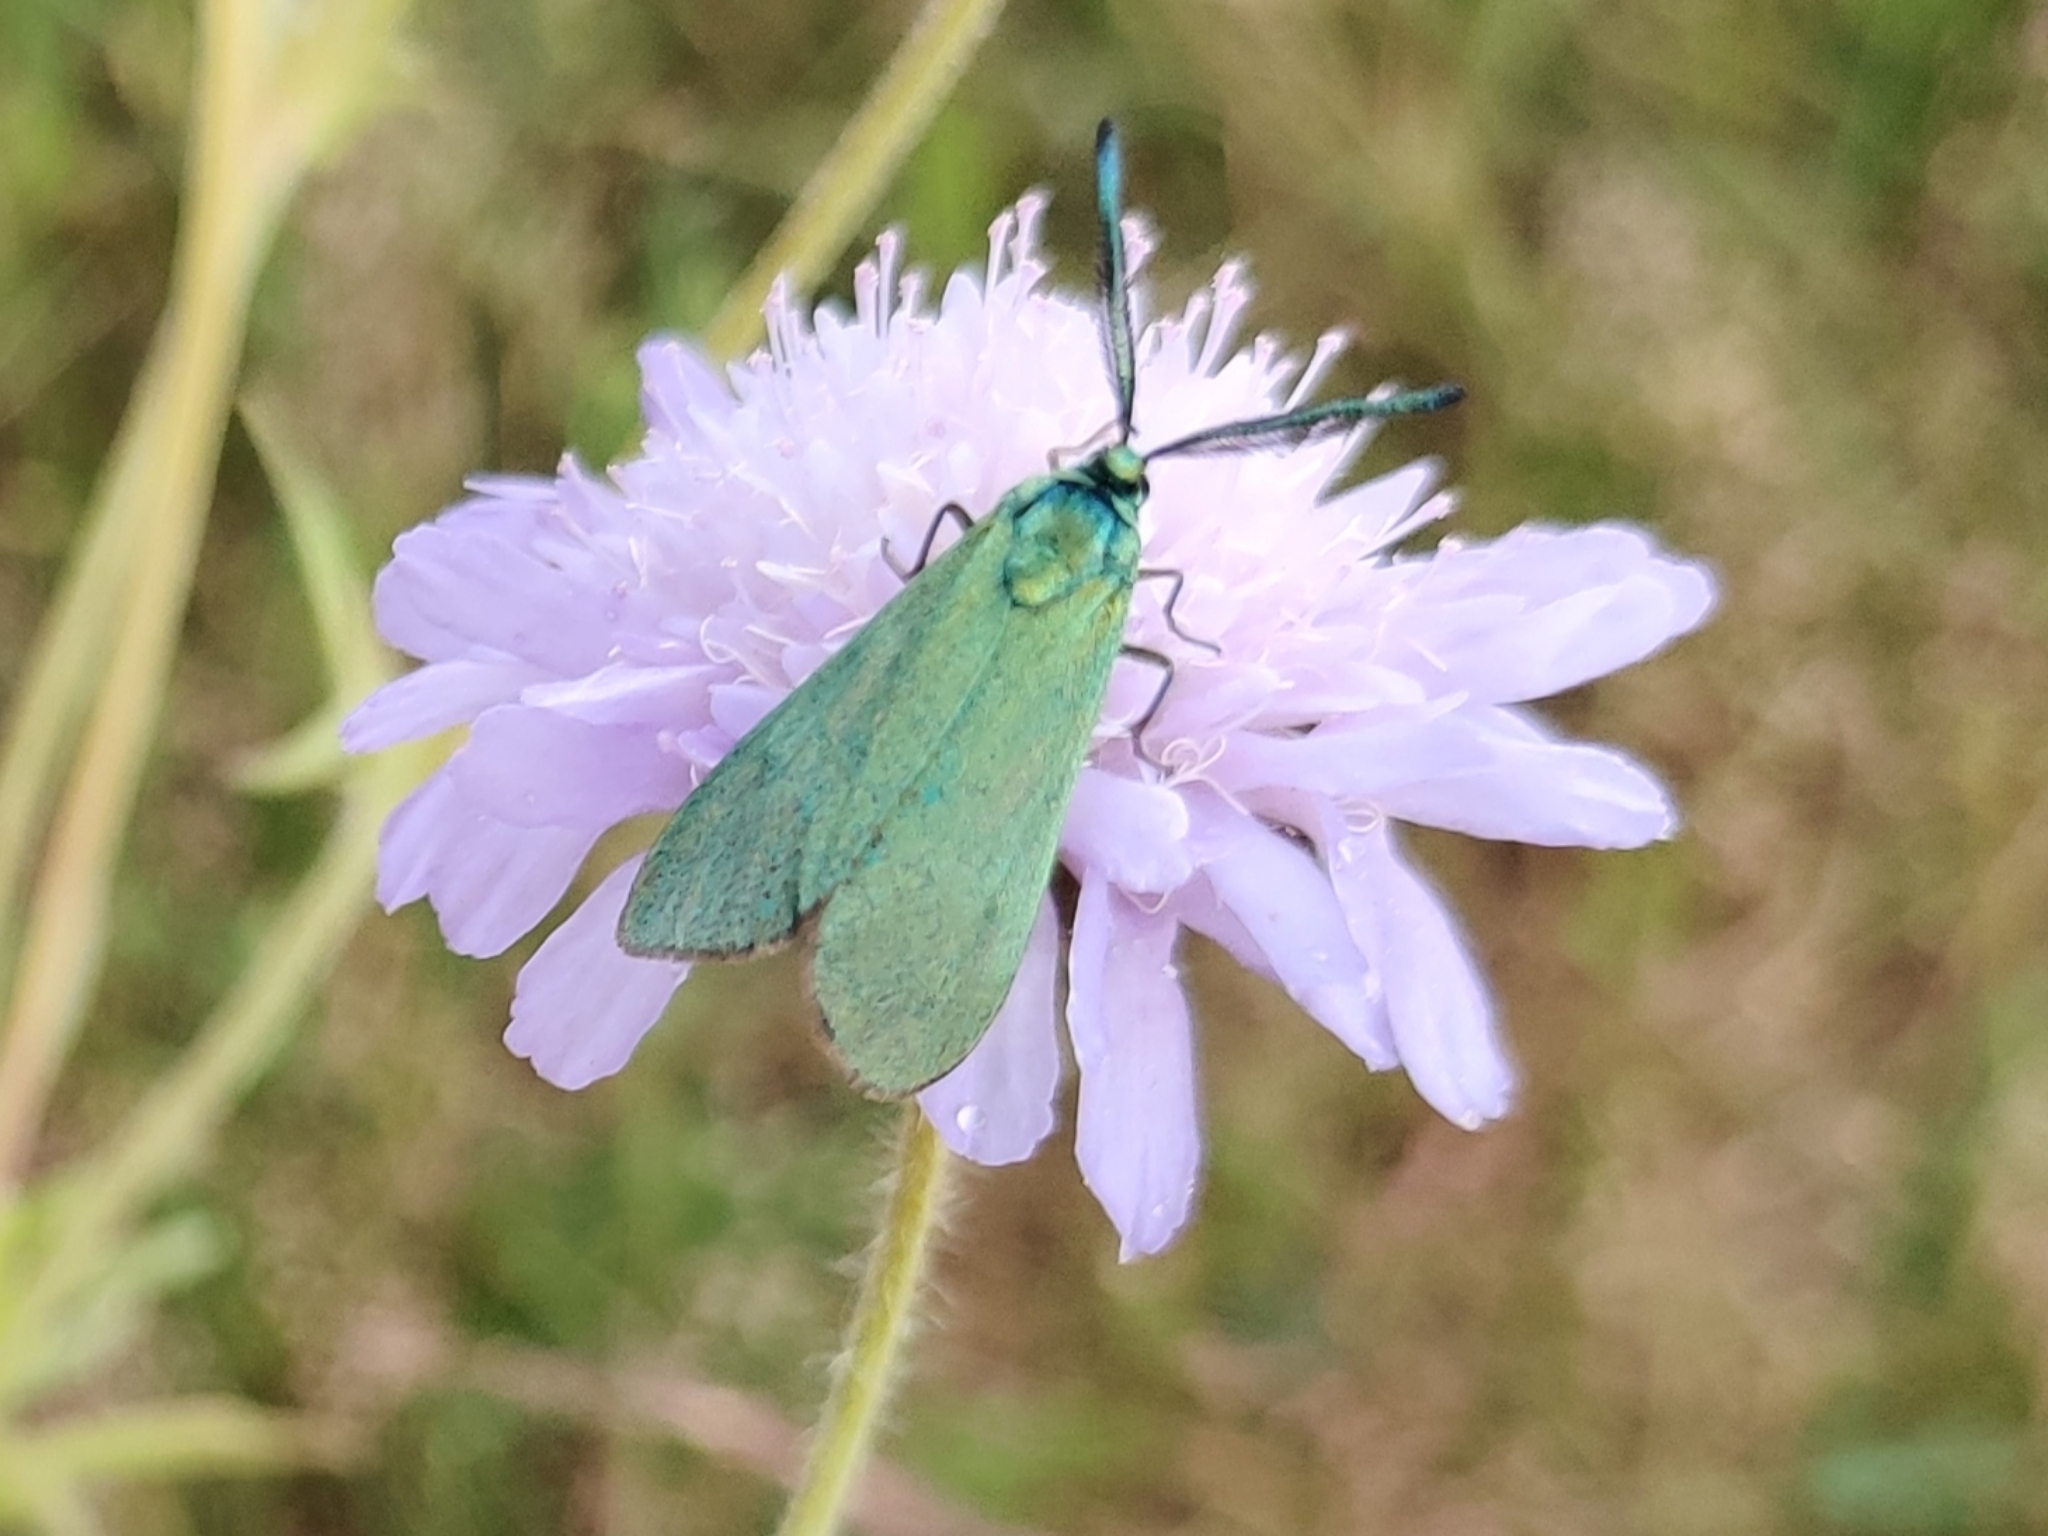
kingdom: Animalia
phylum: Arthropoda
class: Insecta
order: Lepidoptera
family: Zygaenidae
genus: Adscita
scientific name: Adscita statices
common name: Forester
